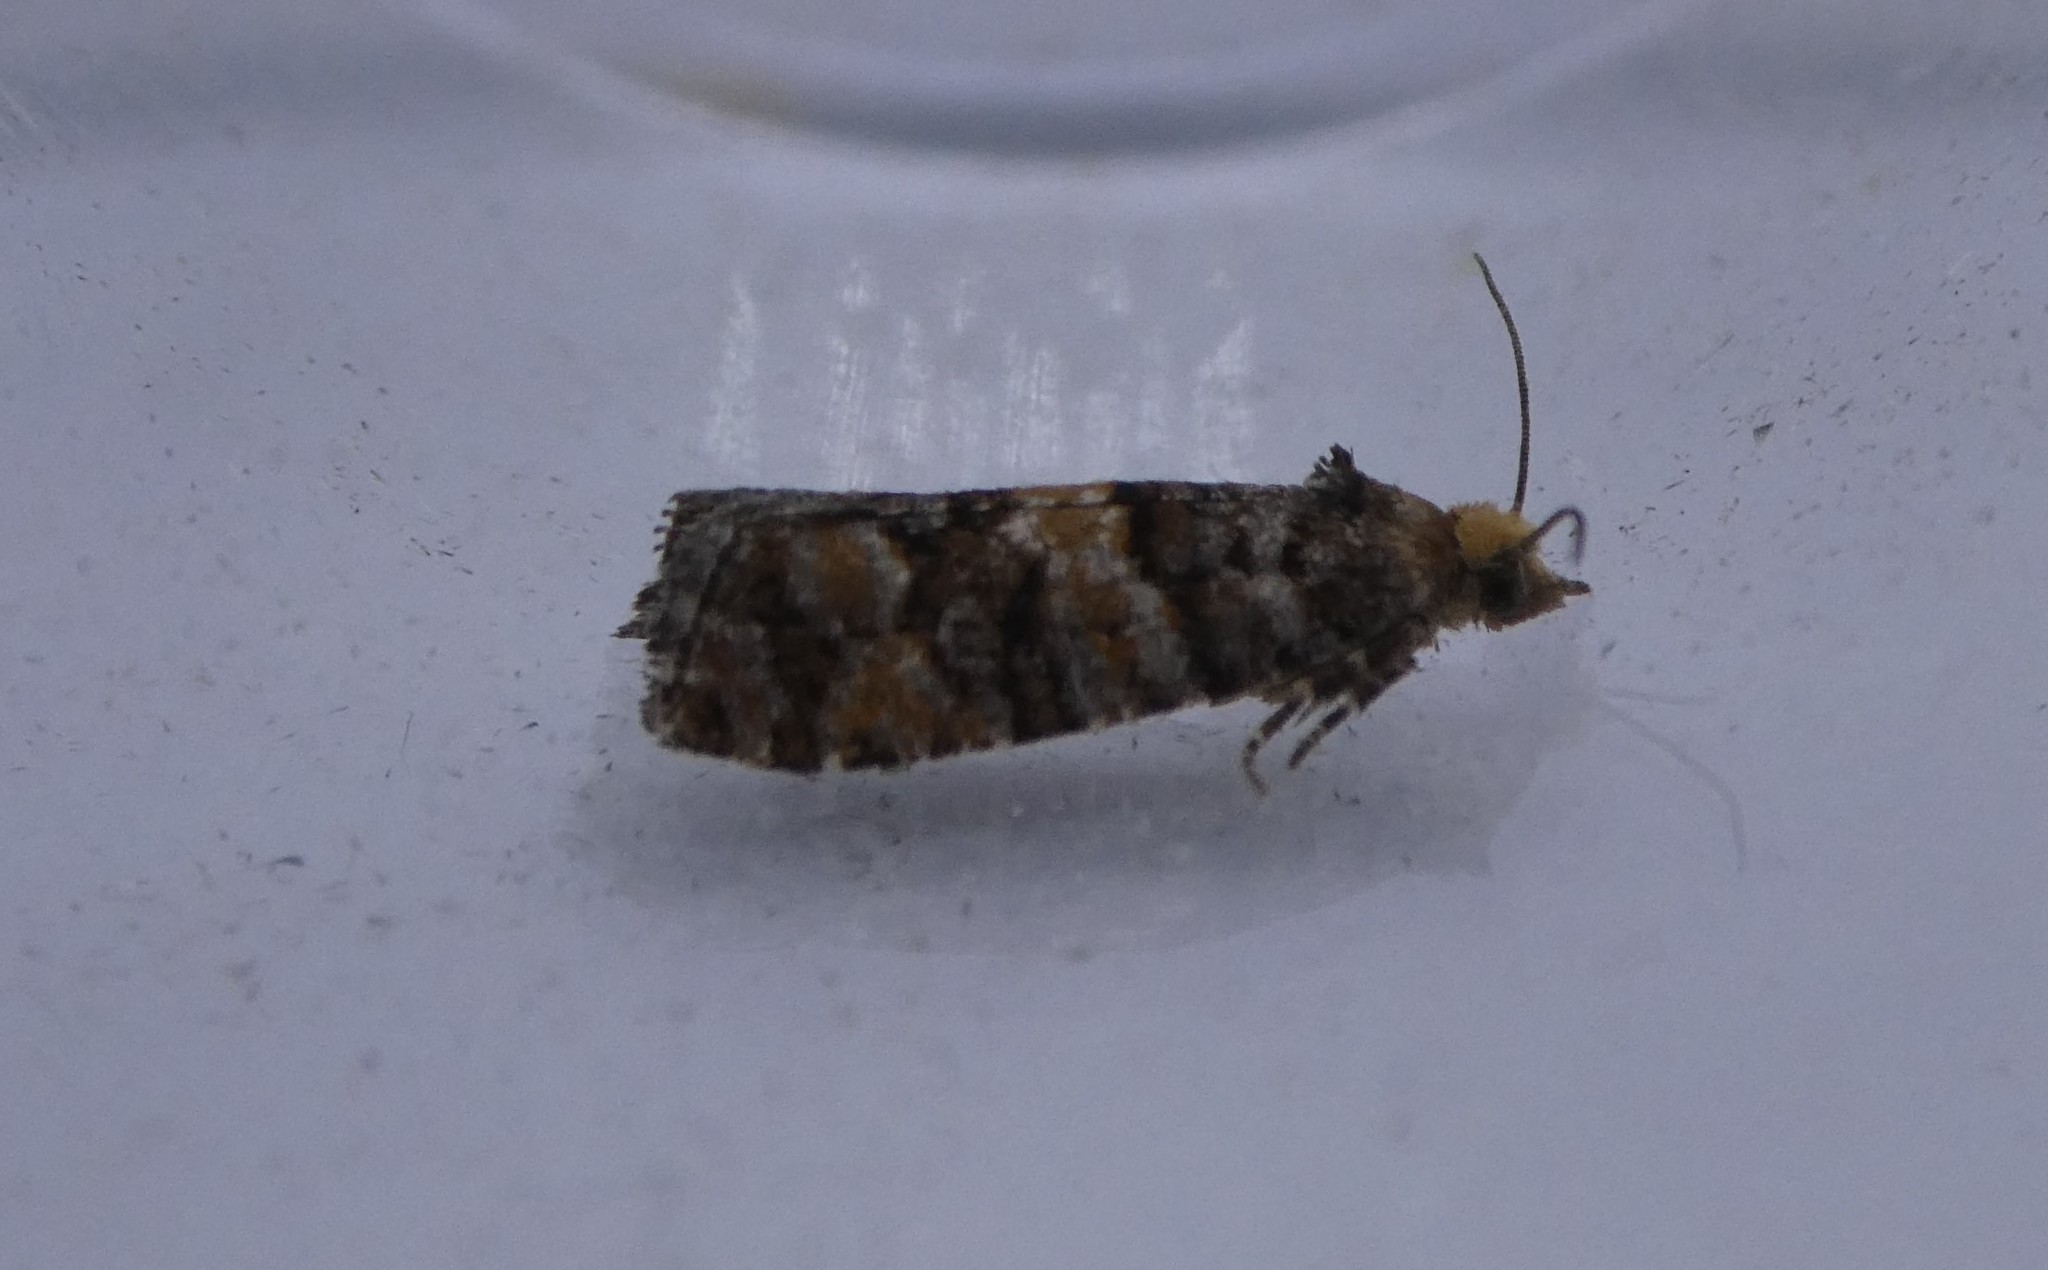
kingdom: Animalia
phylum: Arthropoda
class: Insecta
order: Lepidoptera
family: Tortricidae
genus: Eucopina
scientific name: Eucopina tocullionana
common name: White pinecone borer moth
